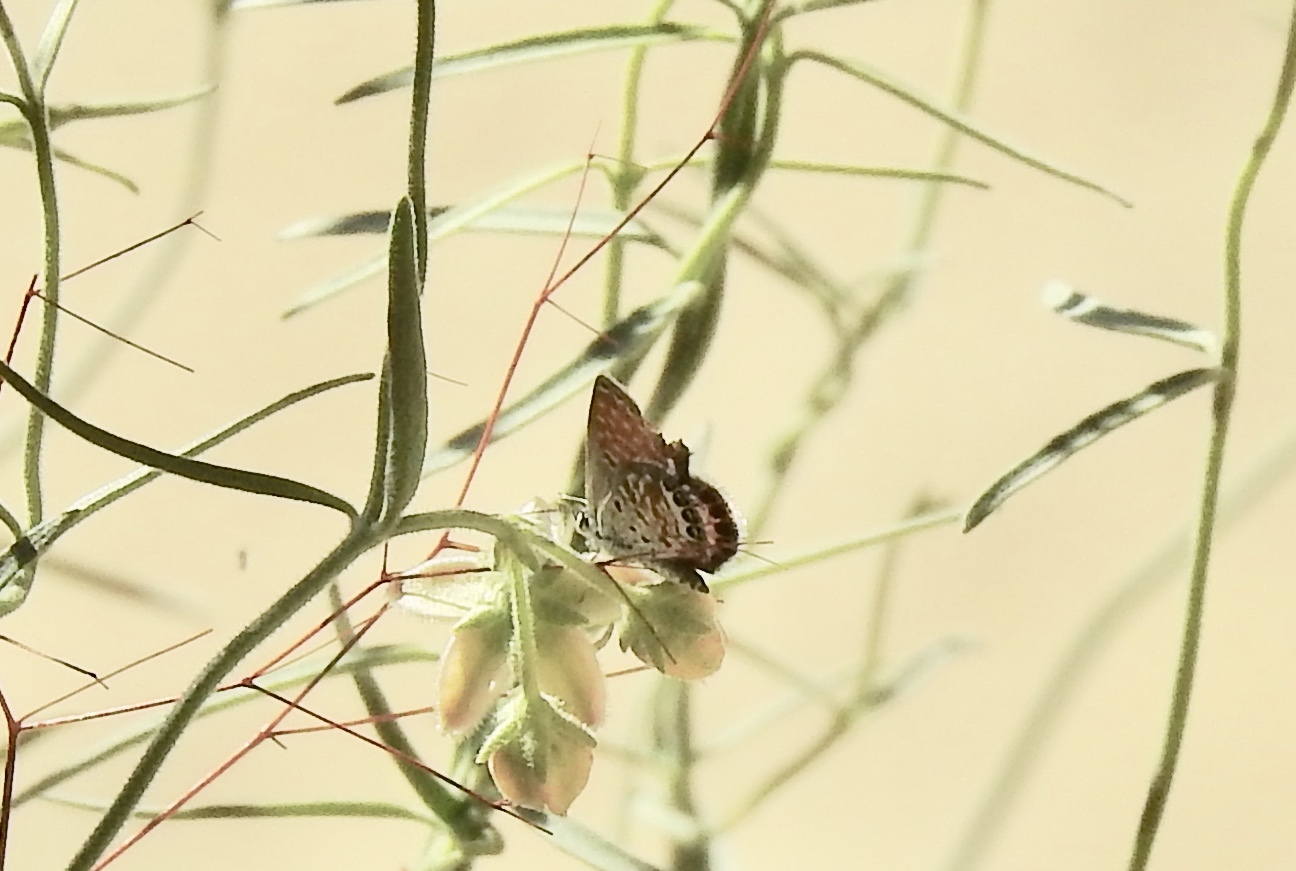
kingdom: Animalia
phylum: Arthropoda
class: Insecta
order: Lepidoptera
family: Lycaenidae
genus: Brephidium
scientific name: Brephidium exilis
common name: Pygmy blue
